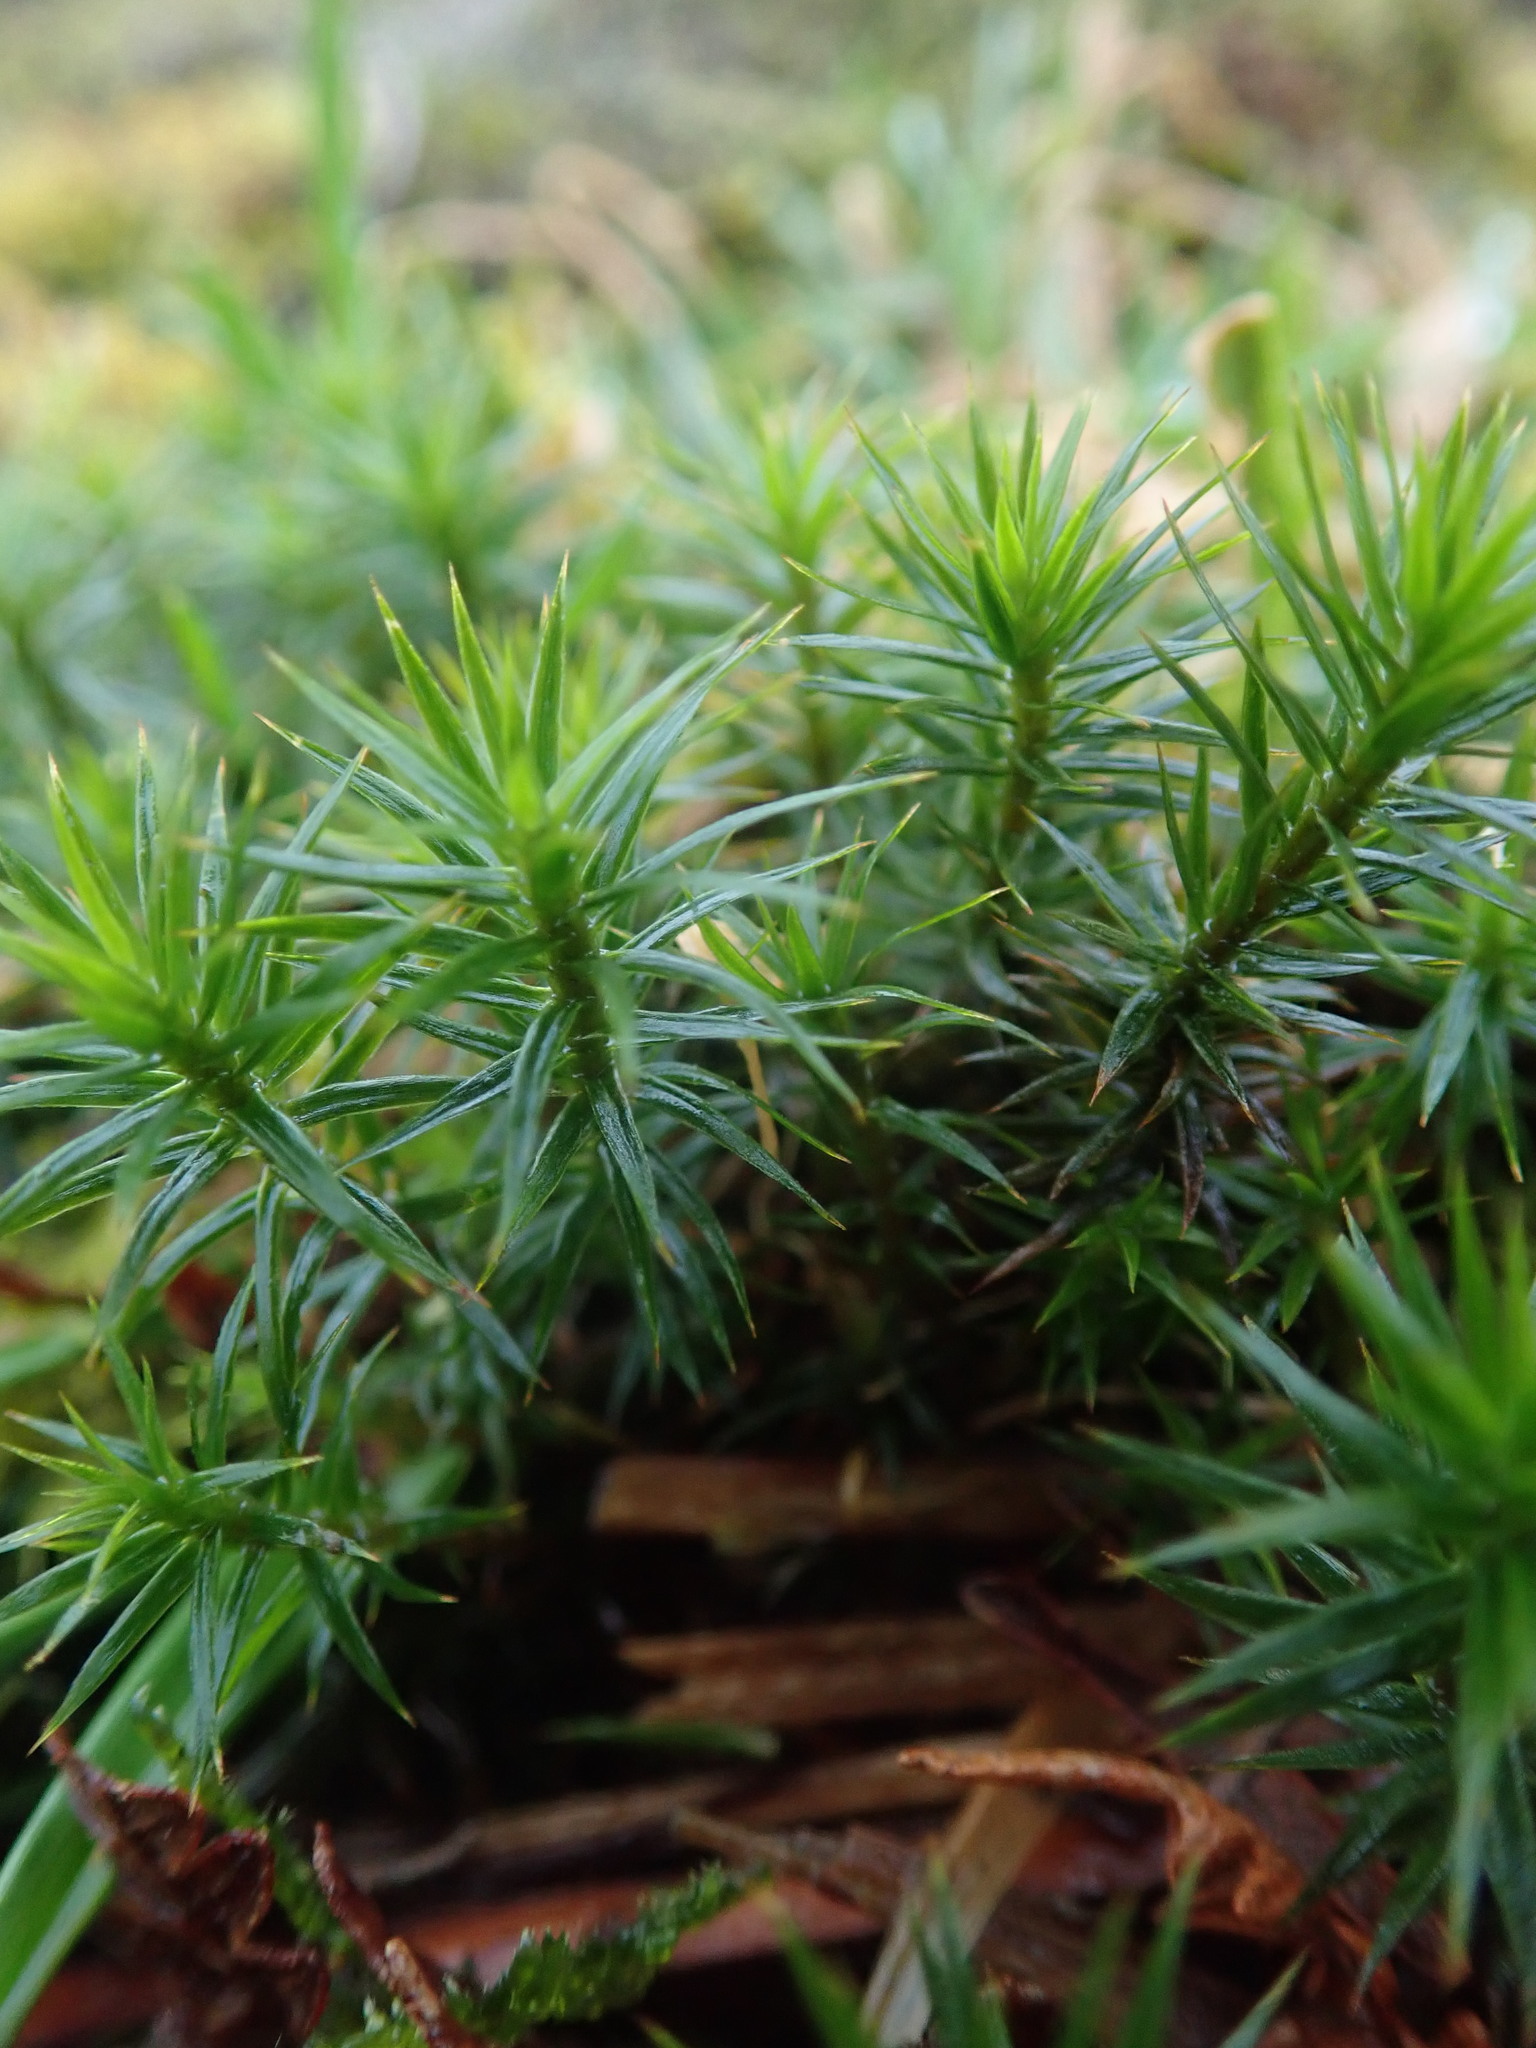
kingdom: Plantae
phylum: Bryophyta
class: Polytrichopsida
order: Polytrichales
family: Polytrichaceae
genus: Polytrichum
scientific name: Polytrichum formosum
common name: Bank haircap moss
